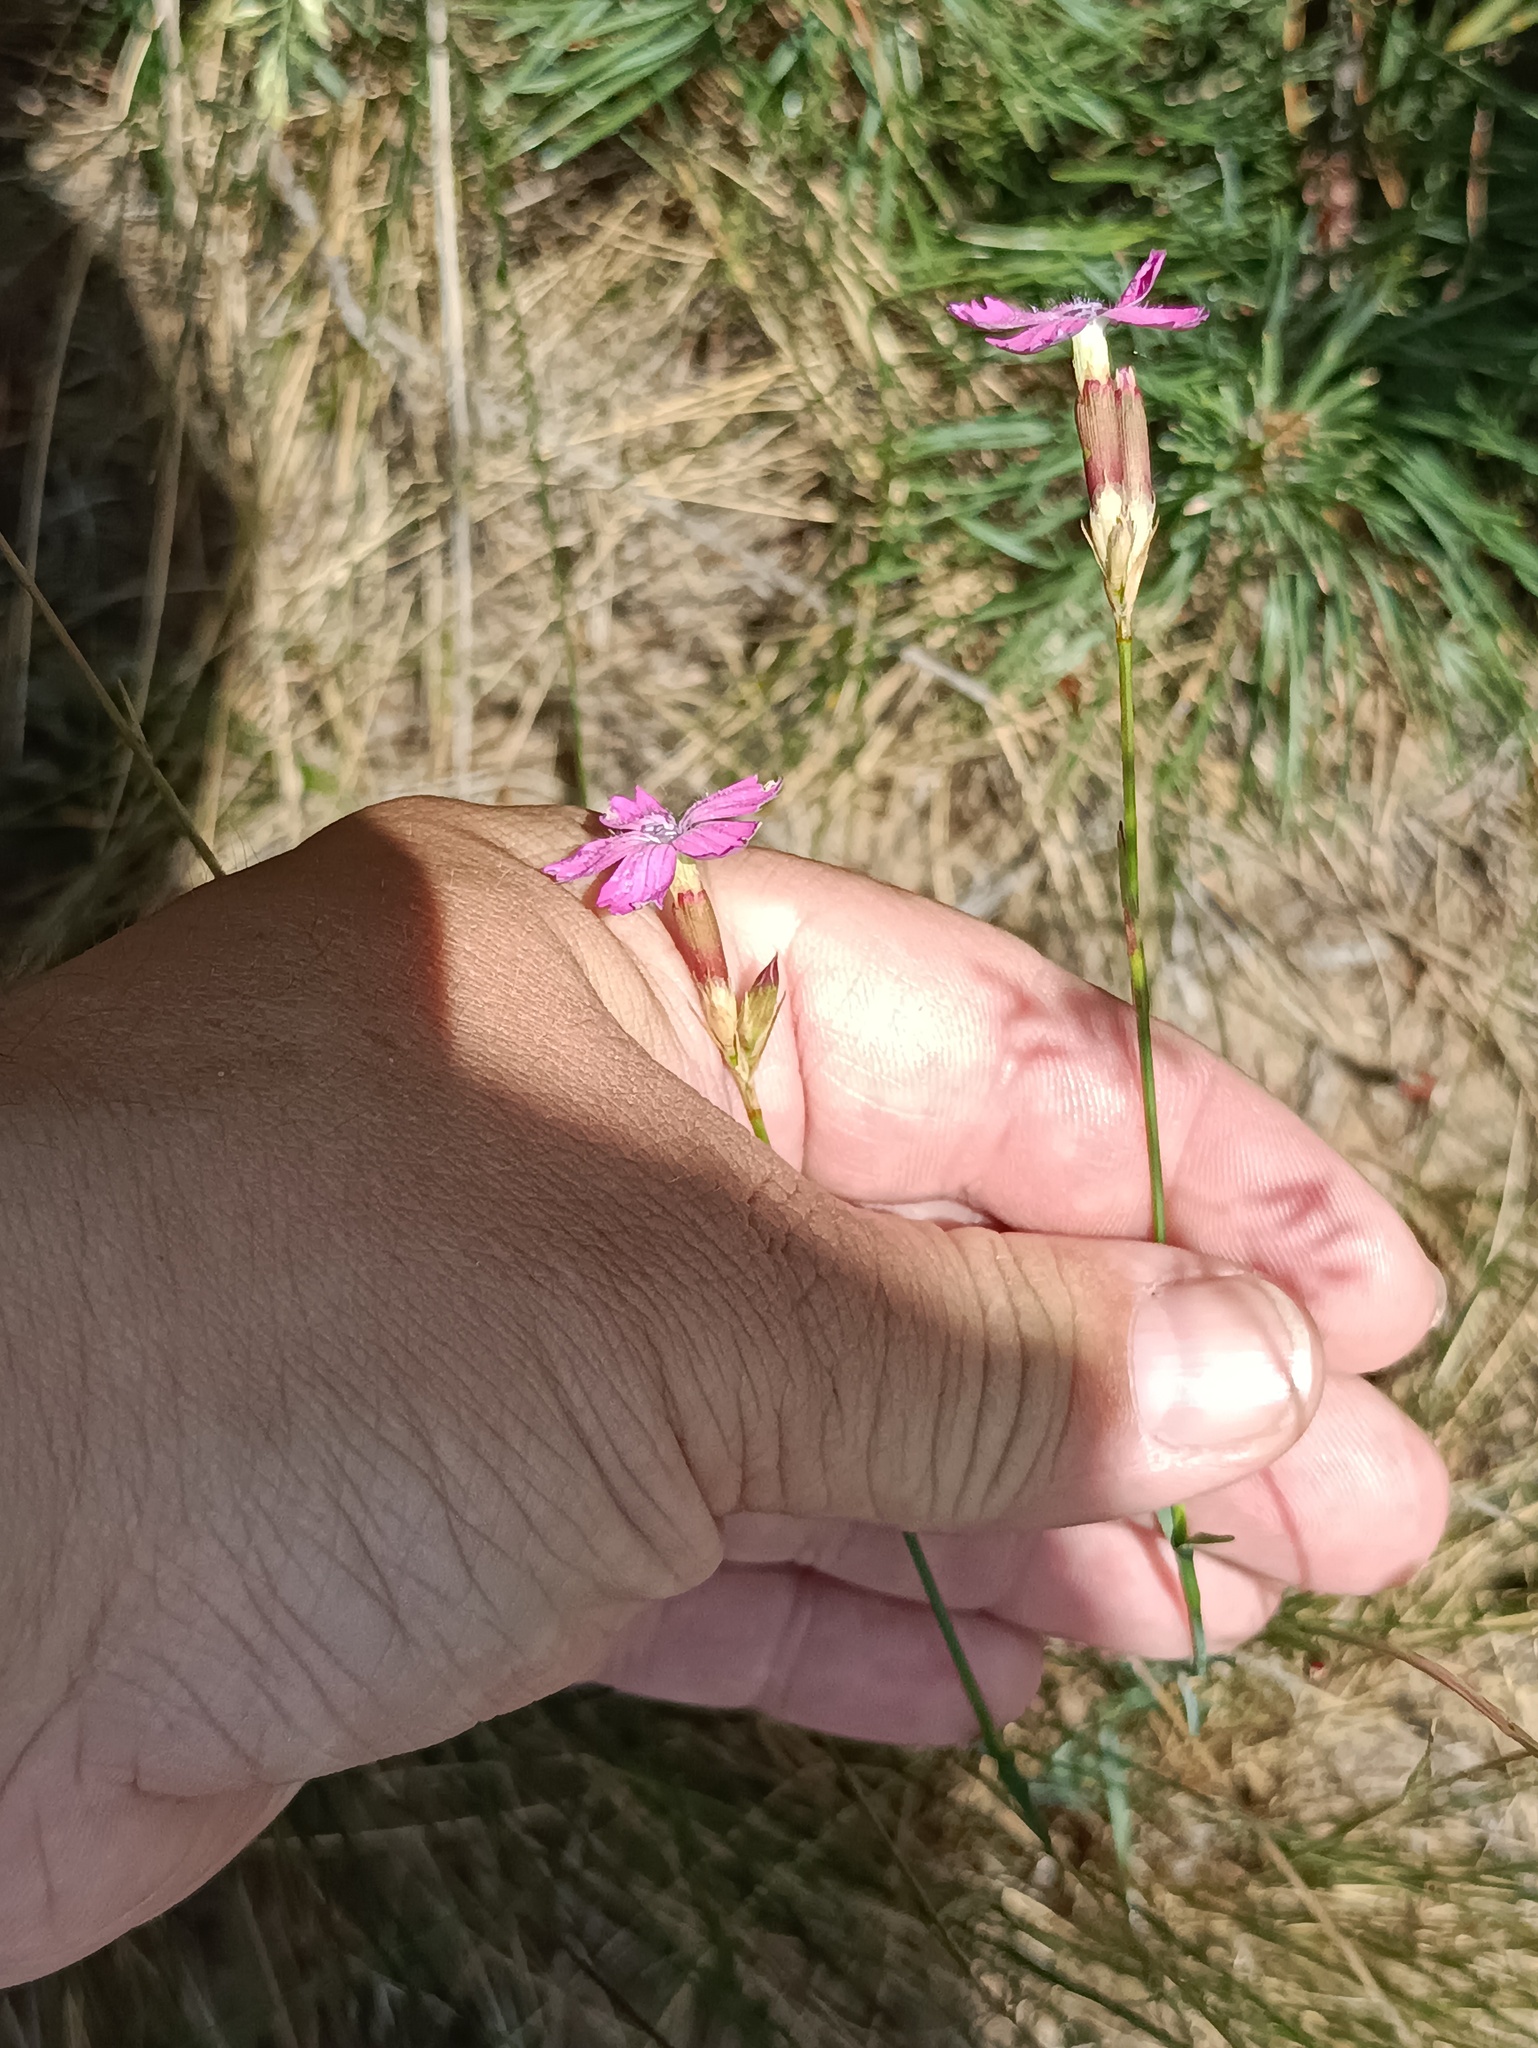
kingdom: Plantae
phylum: Tracheophyta
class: Magnoliopsida
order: Caryophyllales
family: Caryophyllaceae
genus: Dianthus
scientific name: Dianthus borbasii
